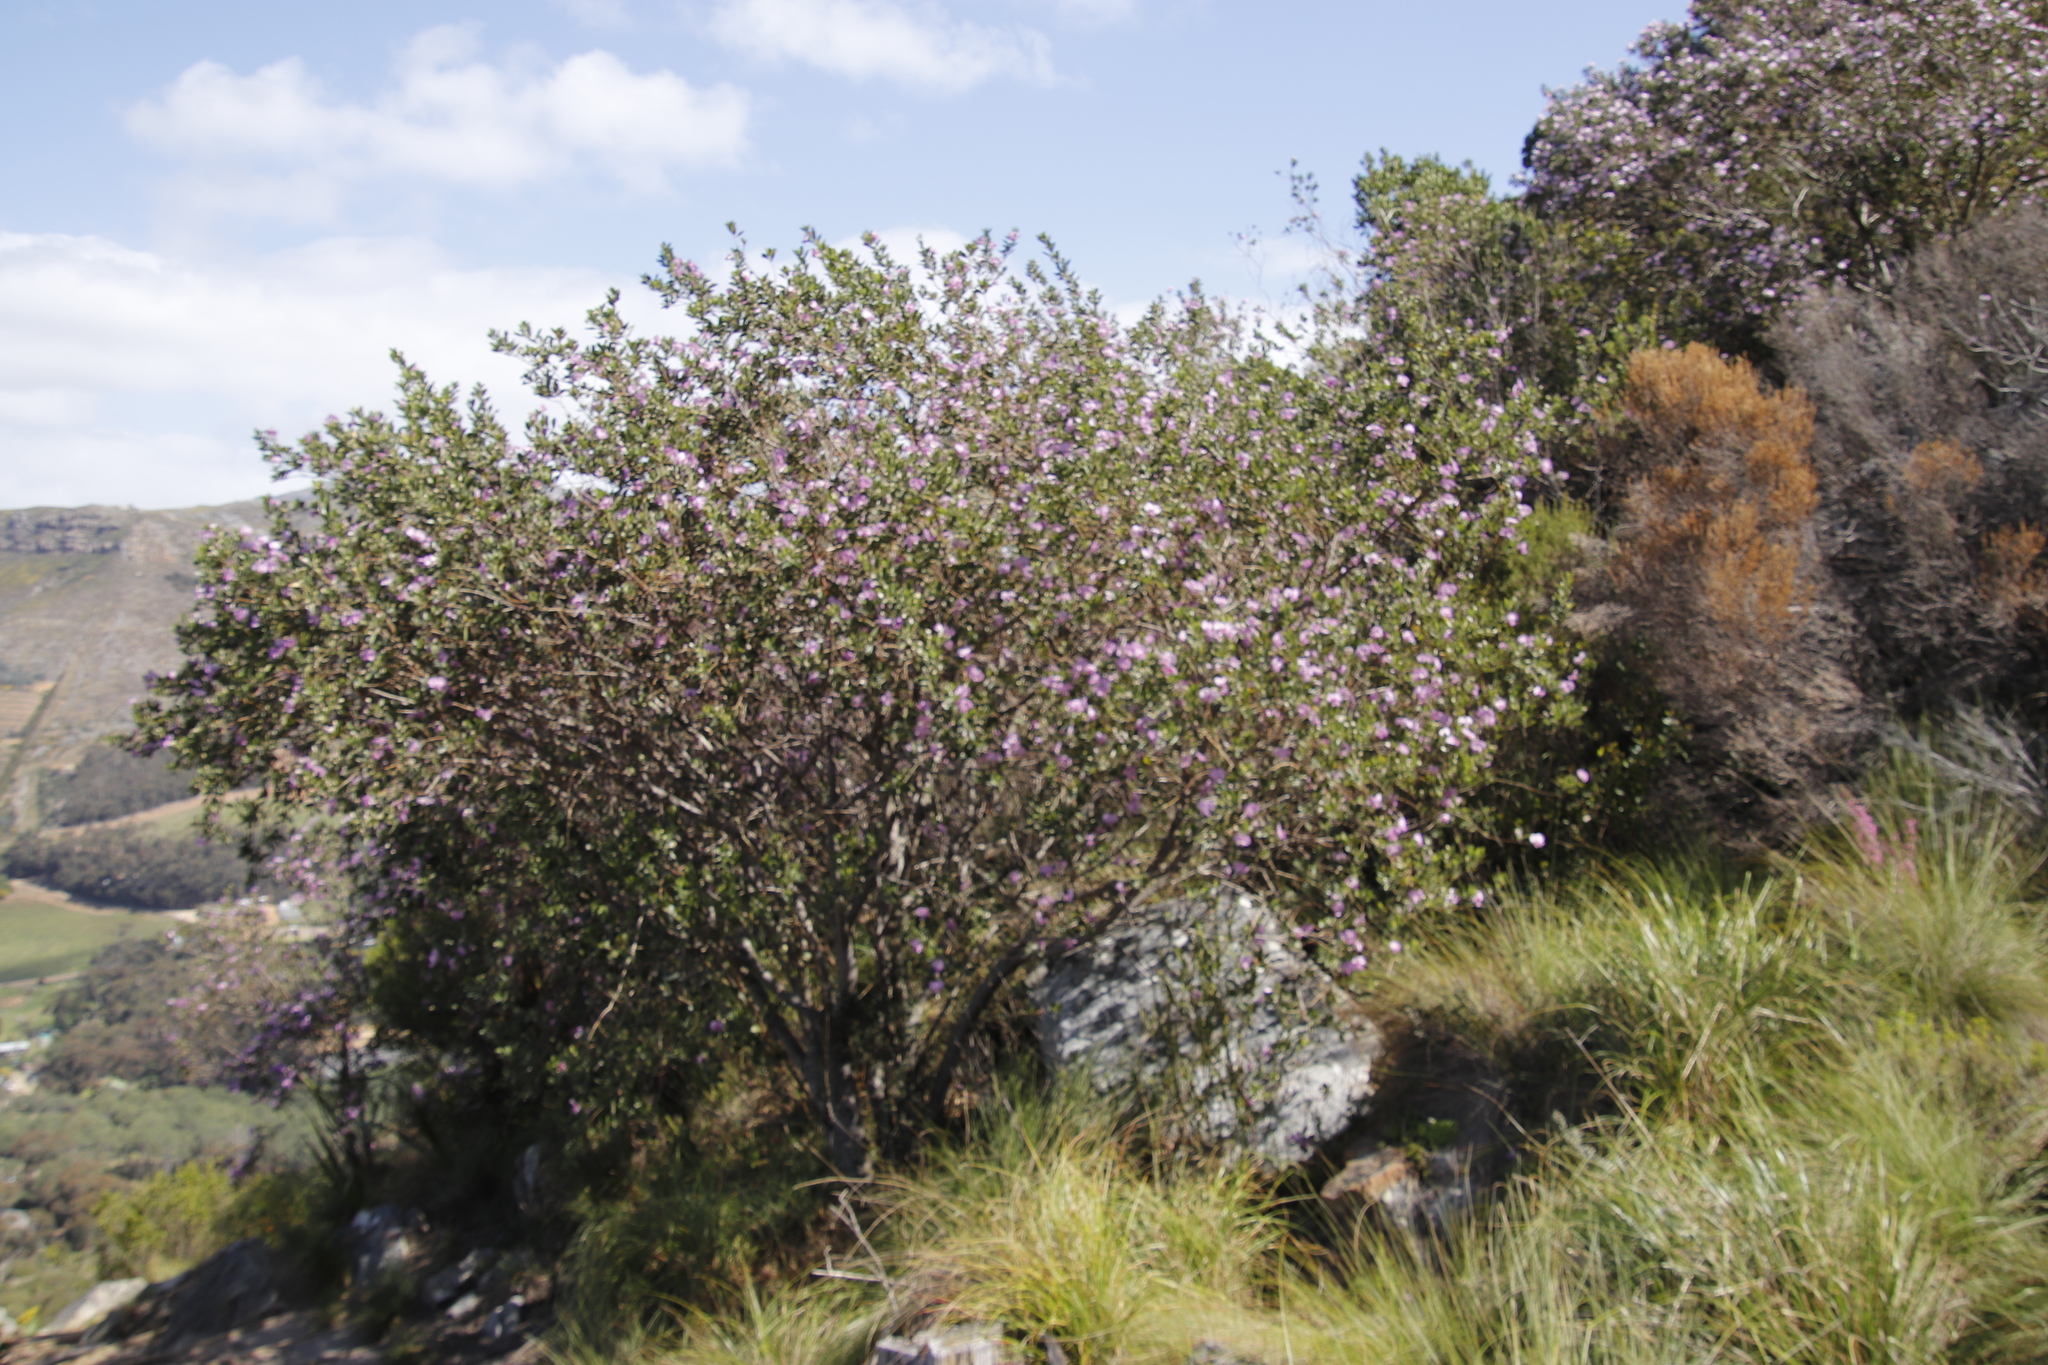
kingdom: Plantae
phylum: Tracheophyta
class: Magnoliopsida
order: Fabales
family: Fabaceae
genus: Podalyria
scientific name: Podalyria calyptrata
